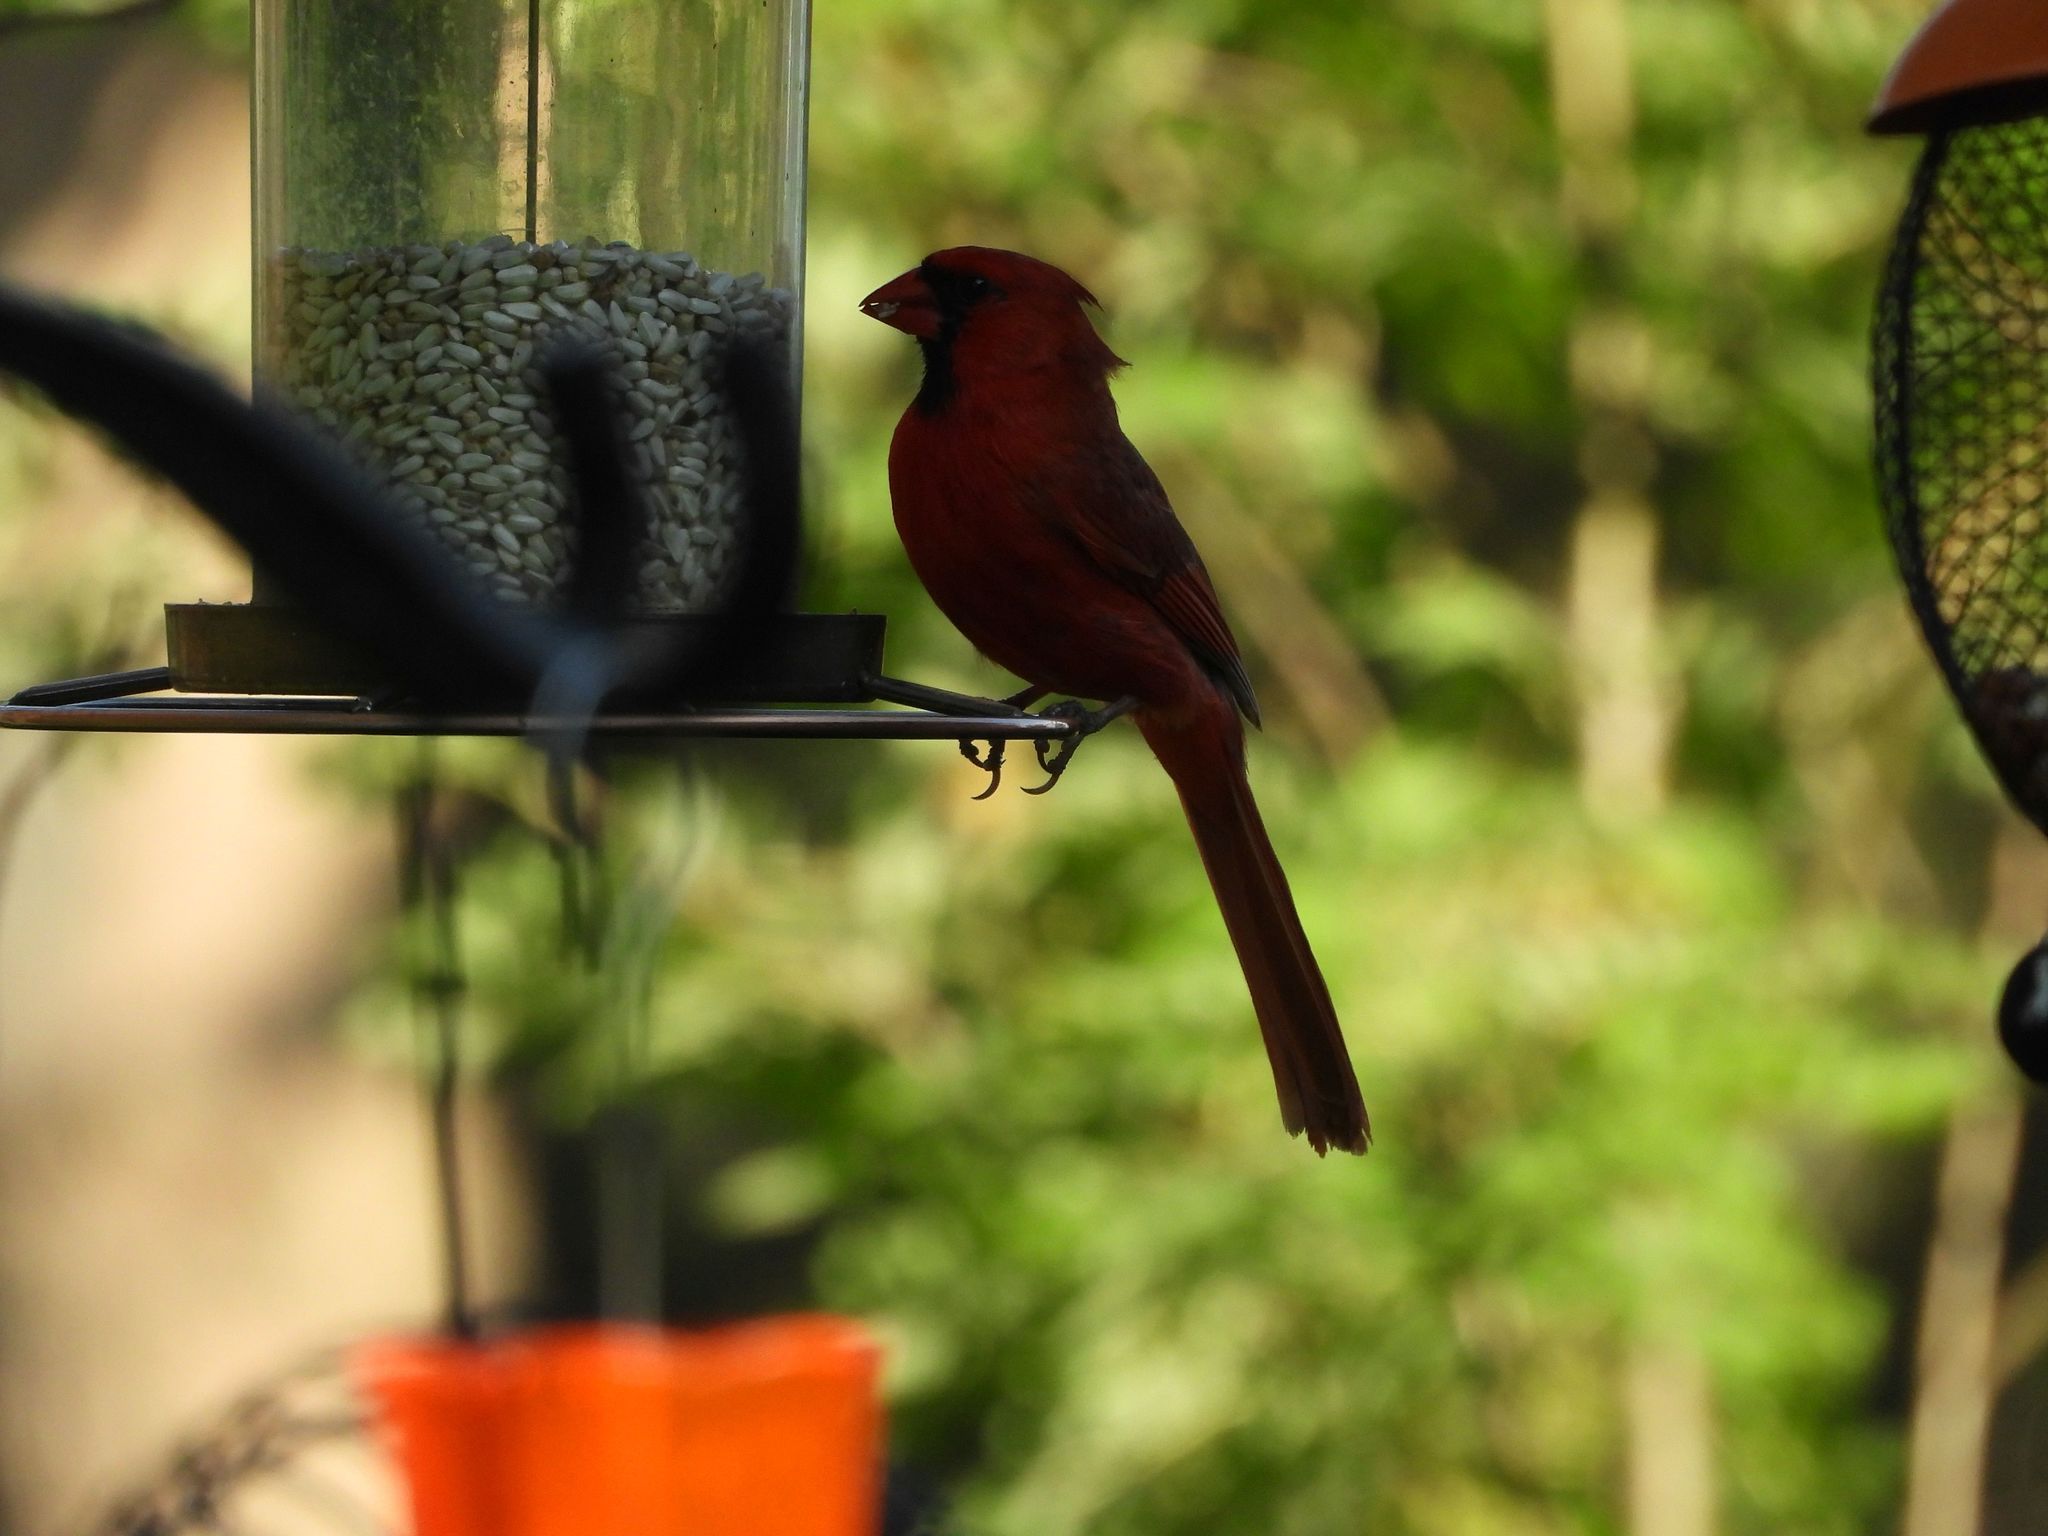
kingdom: Animalia
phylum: Chordata
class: Aves
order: Passeriformes
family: Cardinalidae
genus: Cardinalis
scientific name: Cardinalis cardinalis
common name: Northern cardinal
